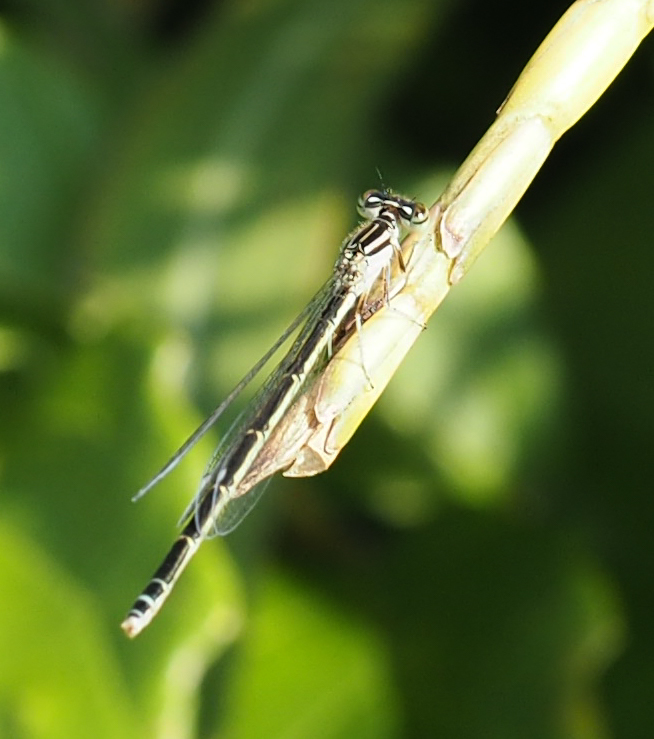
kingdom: Animalia
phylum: Arthropoda
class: Insecta
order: Odonata
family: Coenagrionidae
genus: Enallagma
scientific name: Enallagma durum
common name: Big bluet
